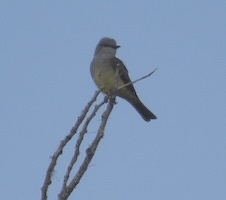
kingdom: Animalia
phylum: Chordata
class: Aves
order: Passeriformes
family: Tyrannidae
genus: Tyrannus
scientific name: Tyrannus verticalis
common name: Western kingbird
